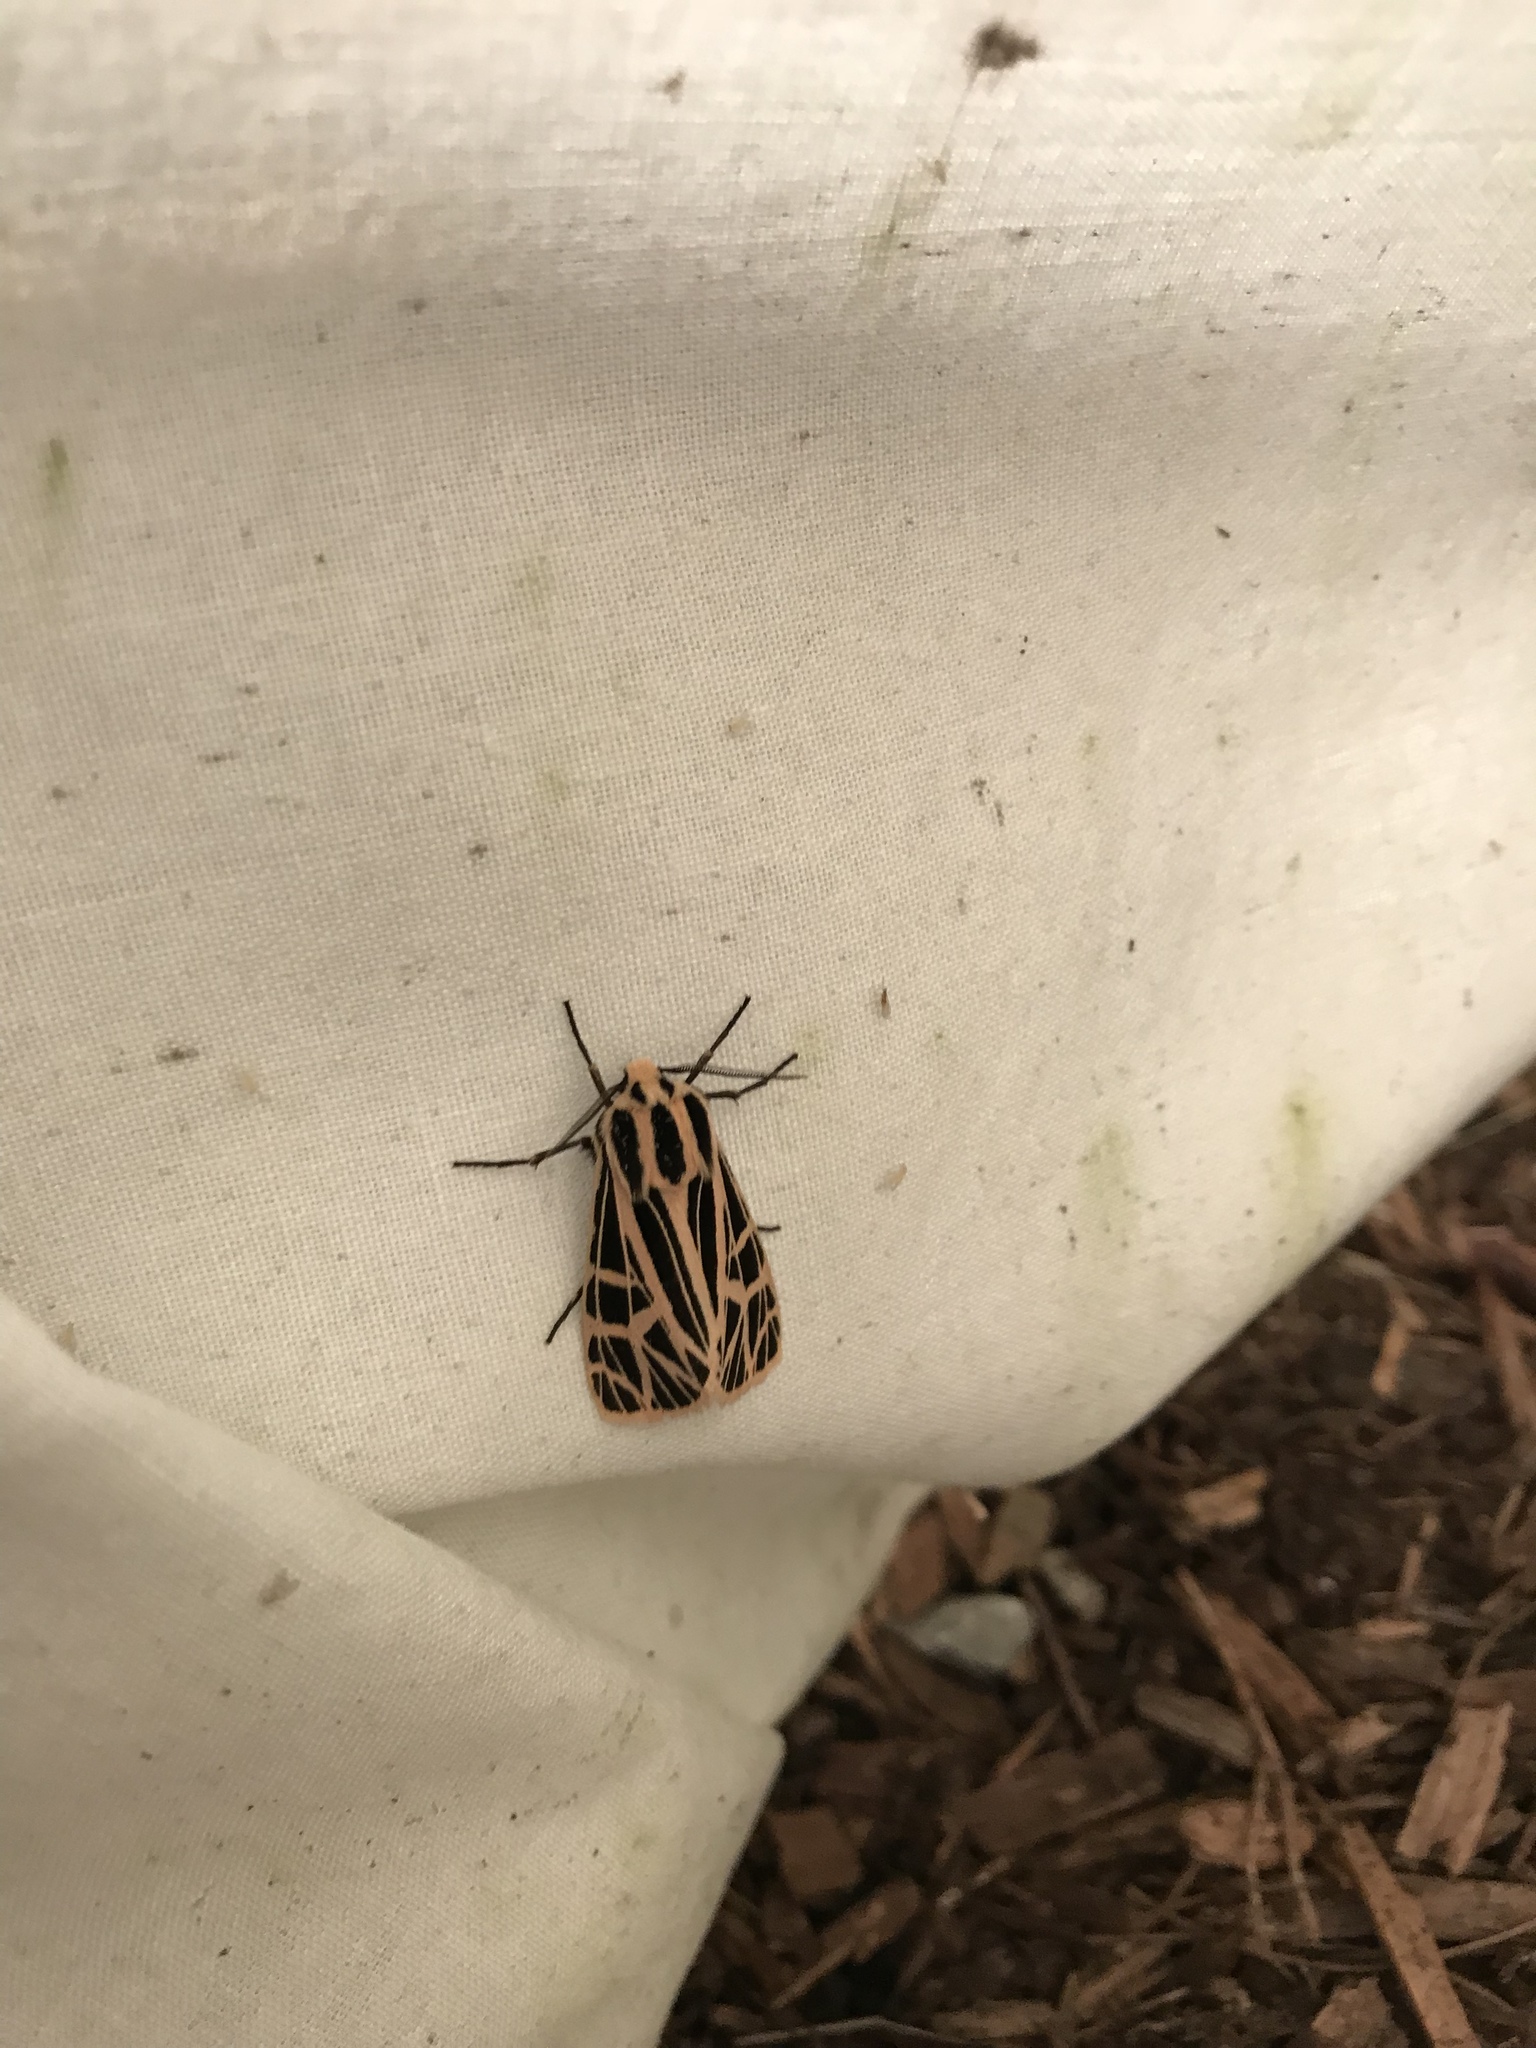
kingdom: Animalia
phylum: Arthropoda
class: Insecta
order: Lepidoptera
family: Erebidae
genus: Grammia
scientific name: Grammia parthenice
